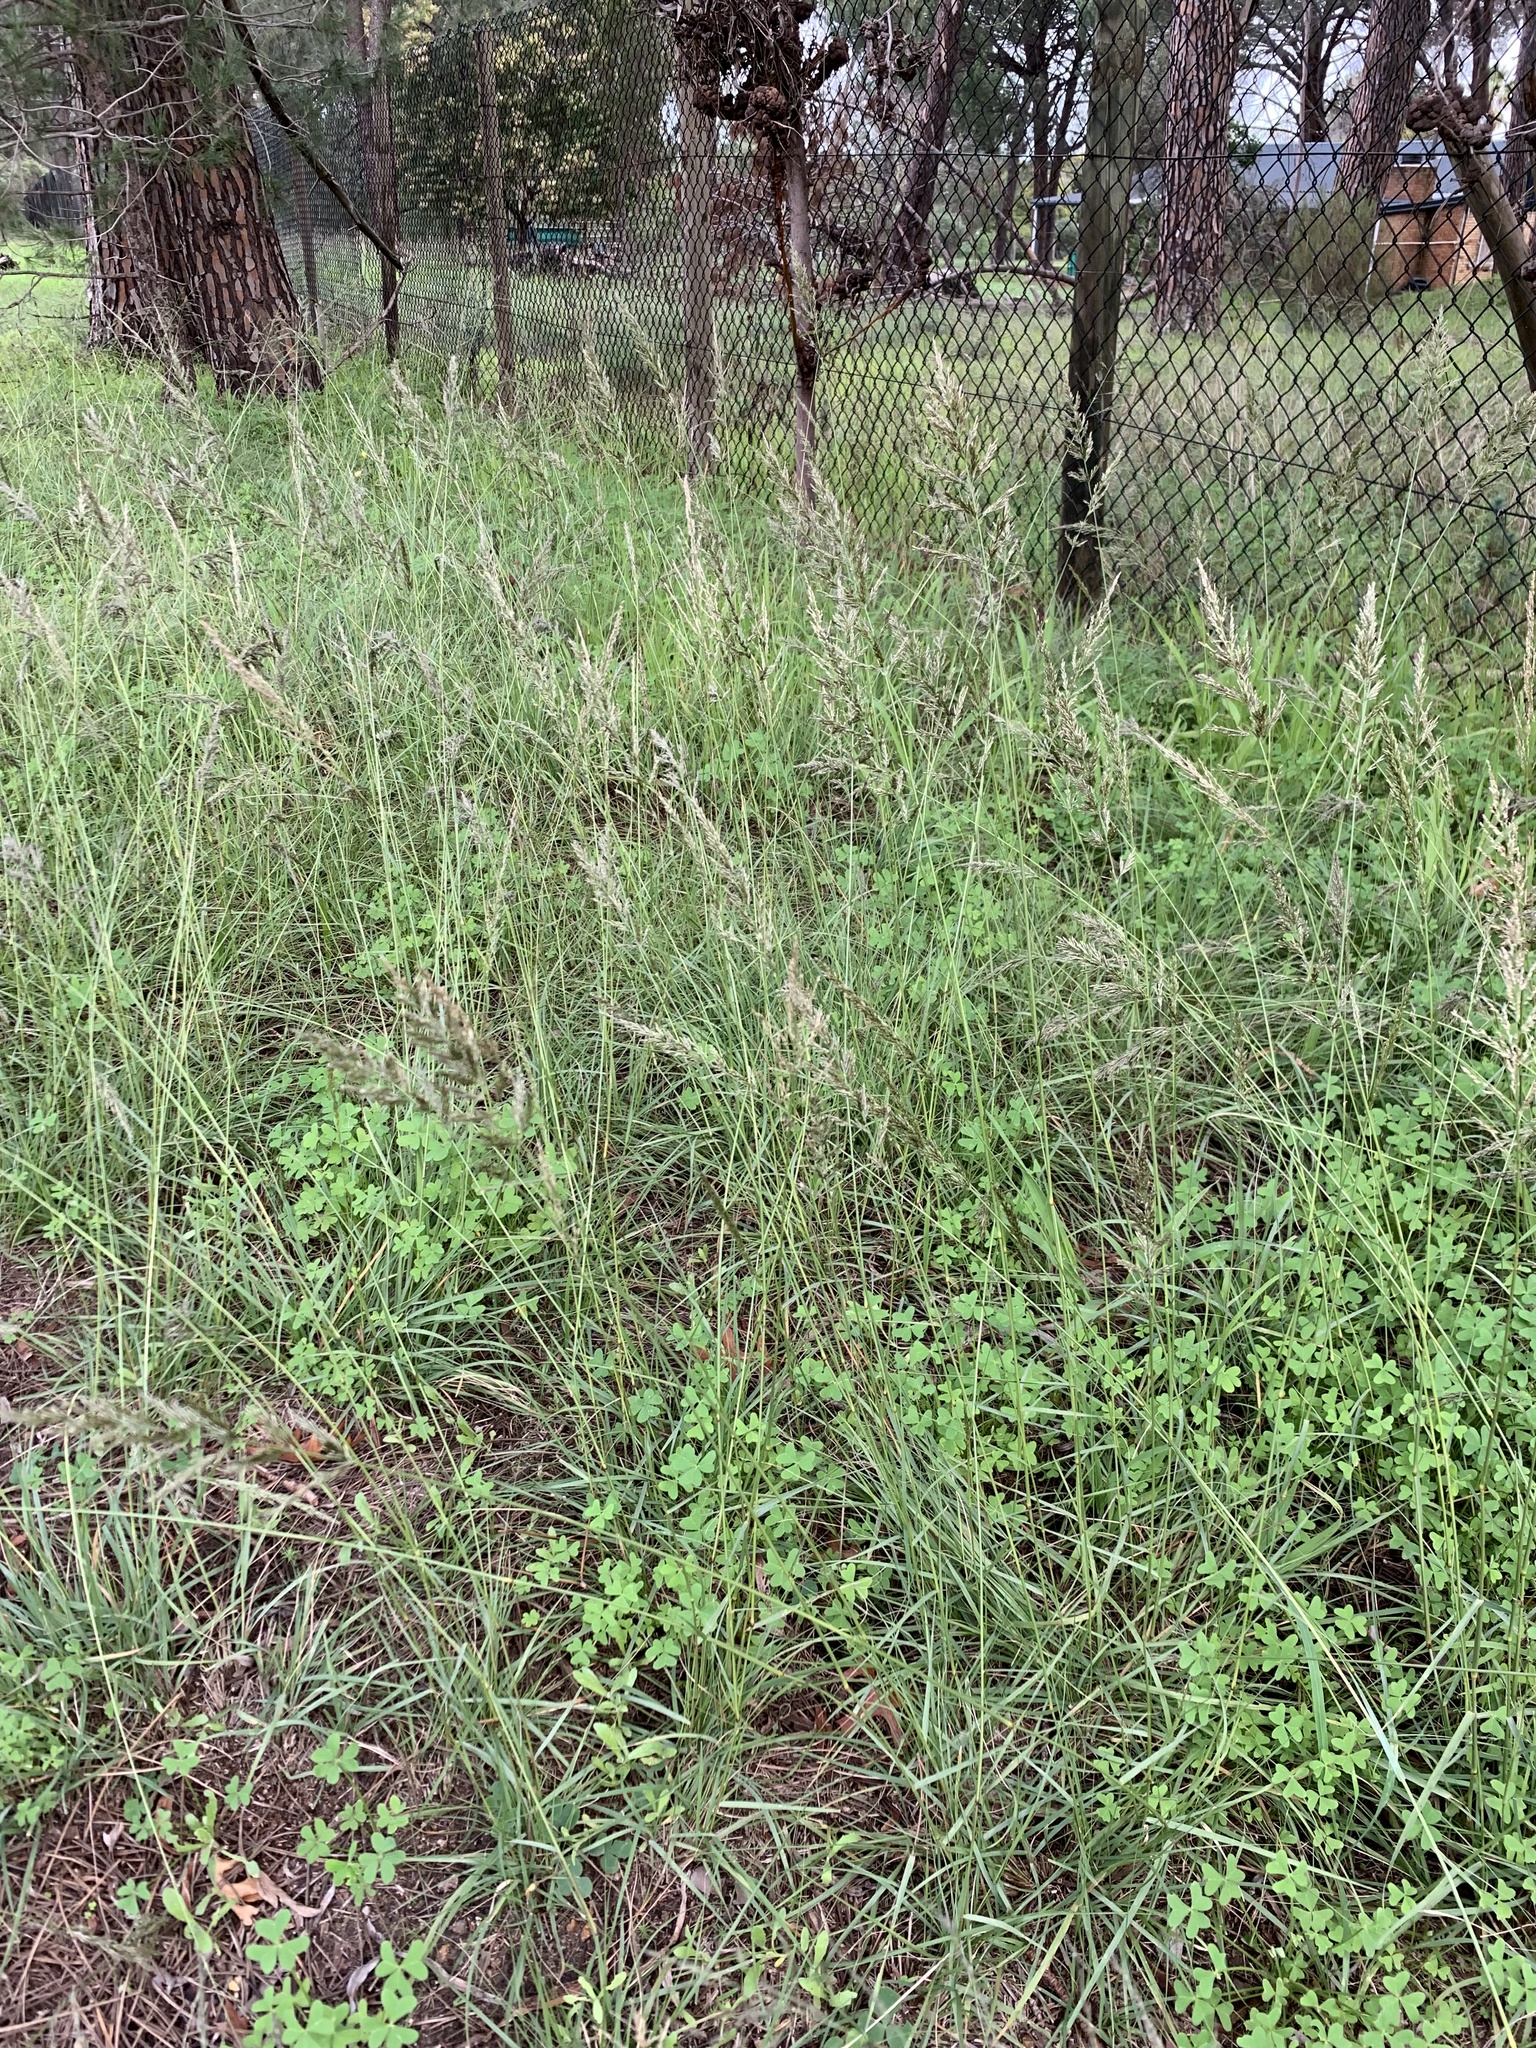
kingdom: Plantae
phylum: Tracheophyta
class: Liliopsida
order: Poales
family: Poaceae
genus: Eragrostis
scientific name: Eragrostis curvula
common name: African love-grass
